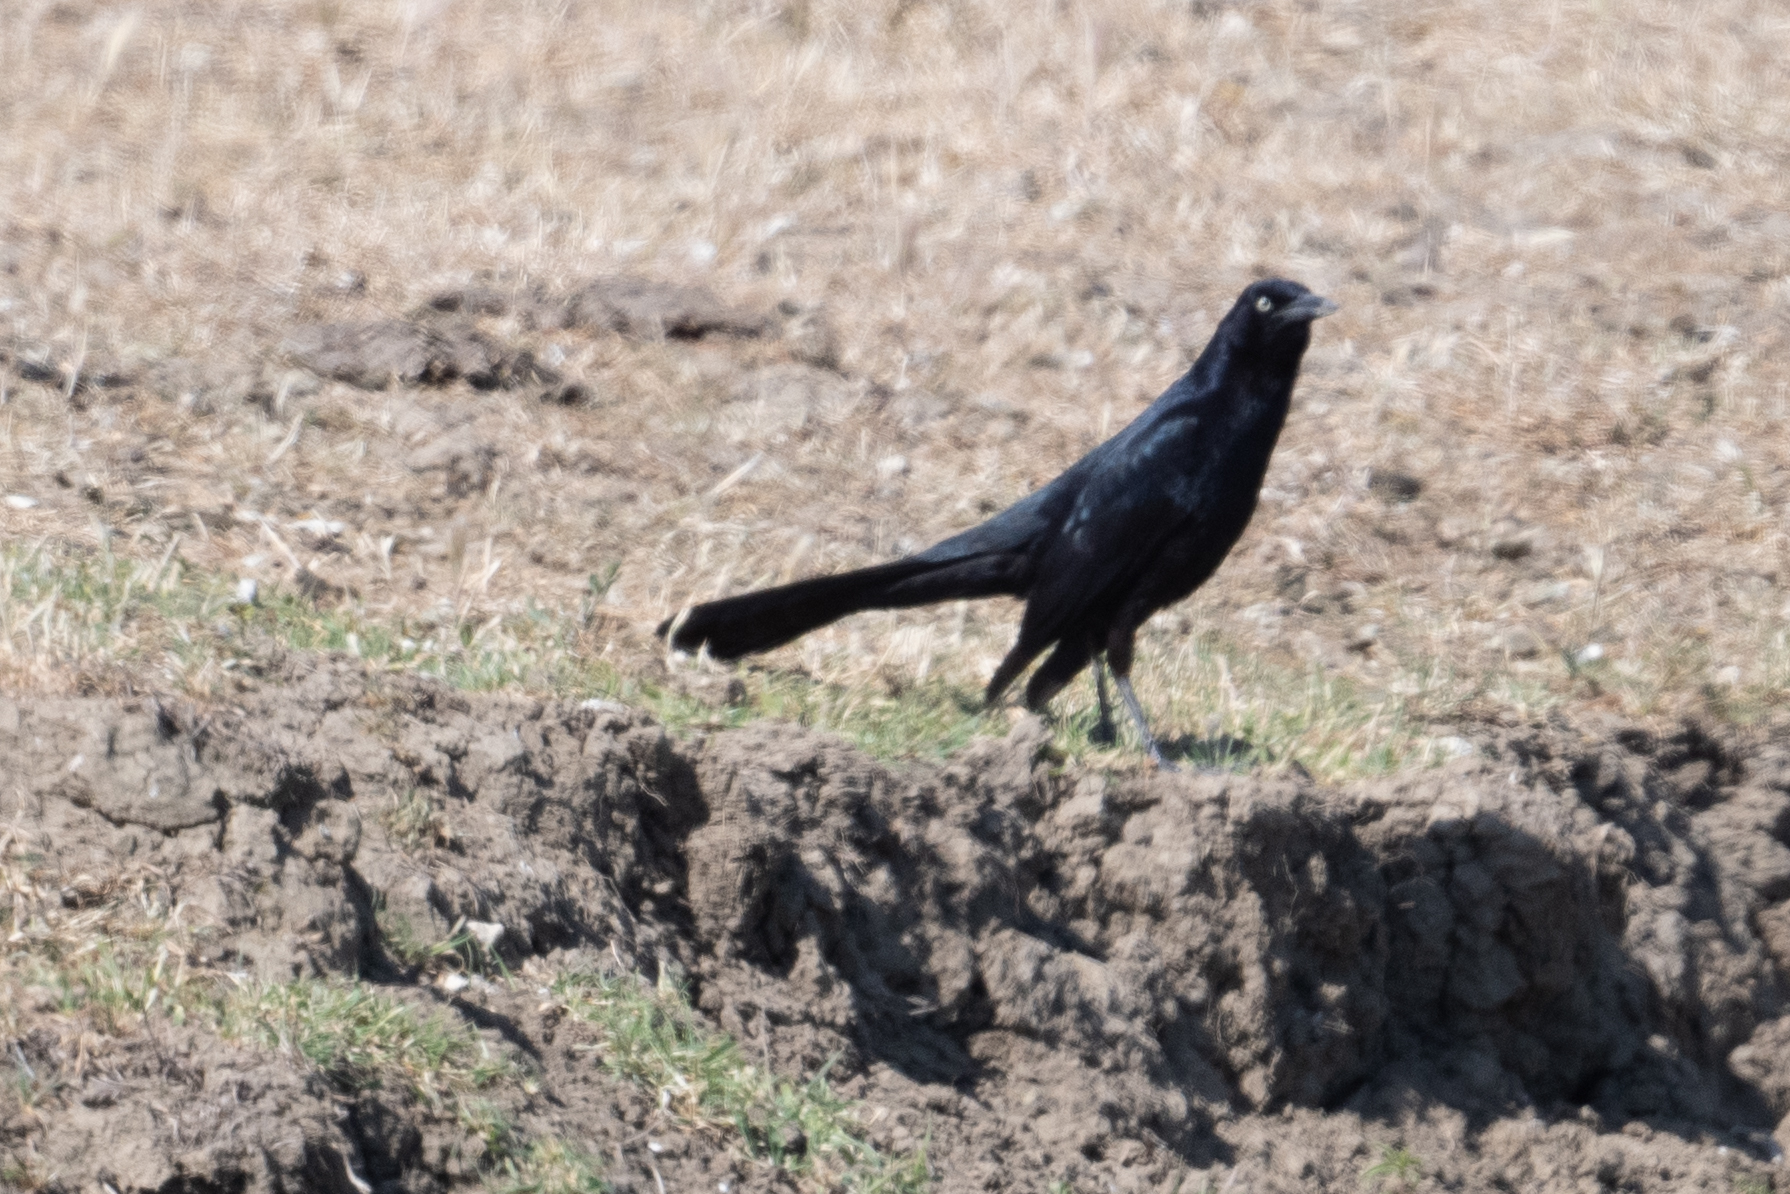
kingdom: Animalia
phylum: Chordata
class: Aves
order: Passeriformes
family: Icteridae
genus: Quiscalus
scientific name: Quiscalus mexicanus
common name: Great-tailed grackle
